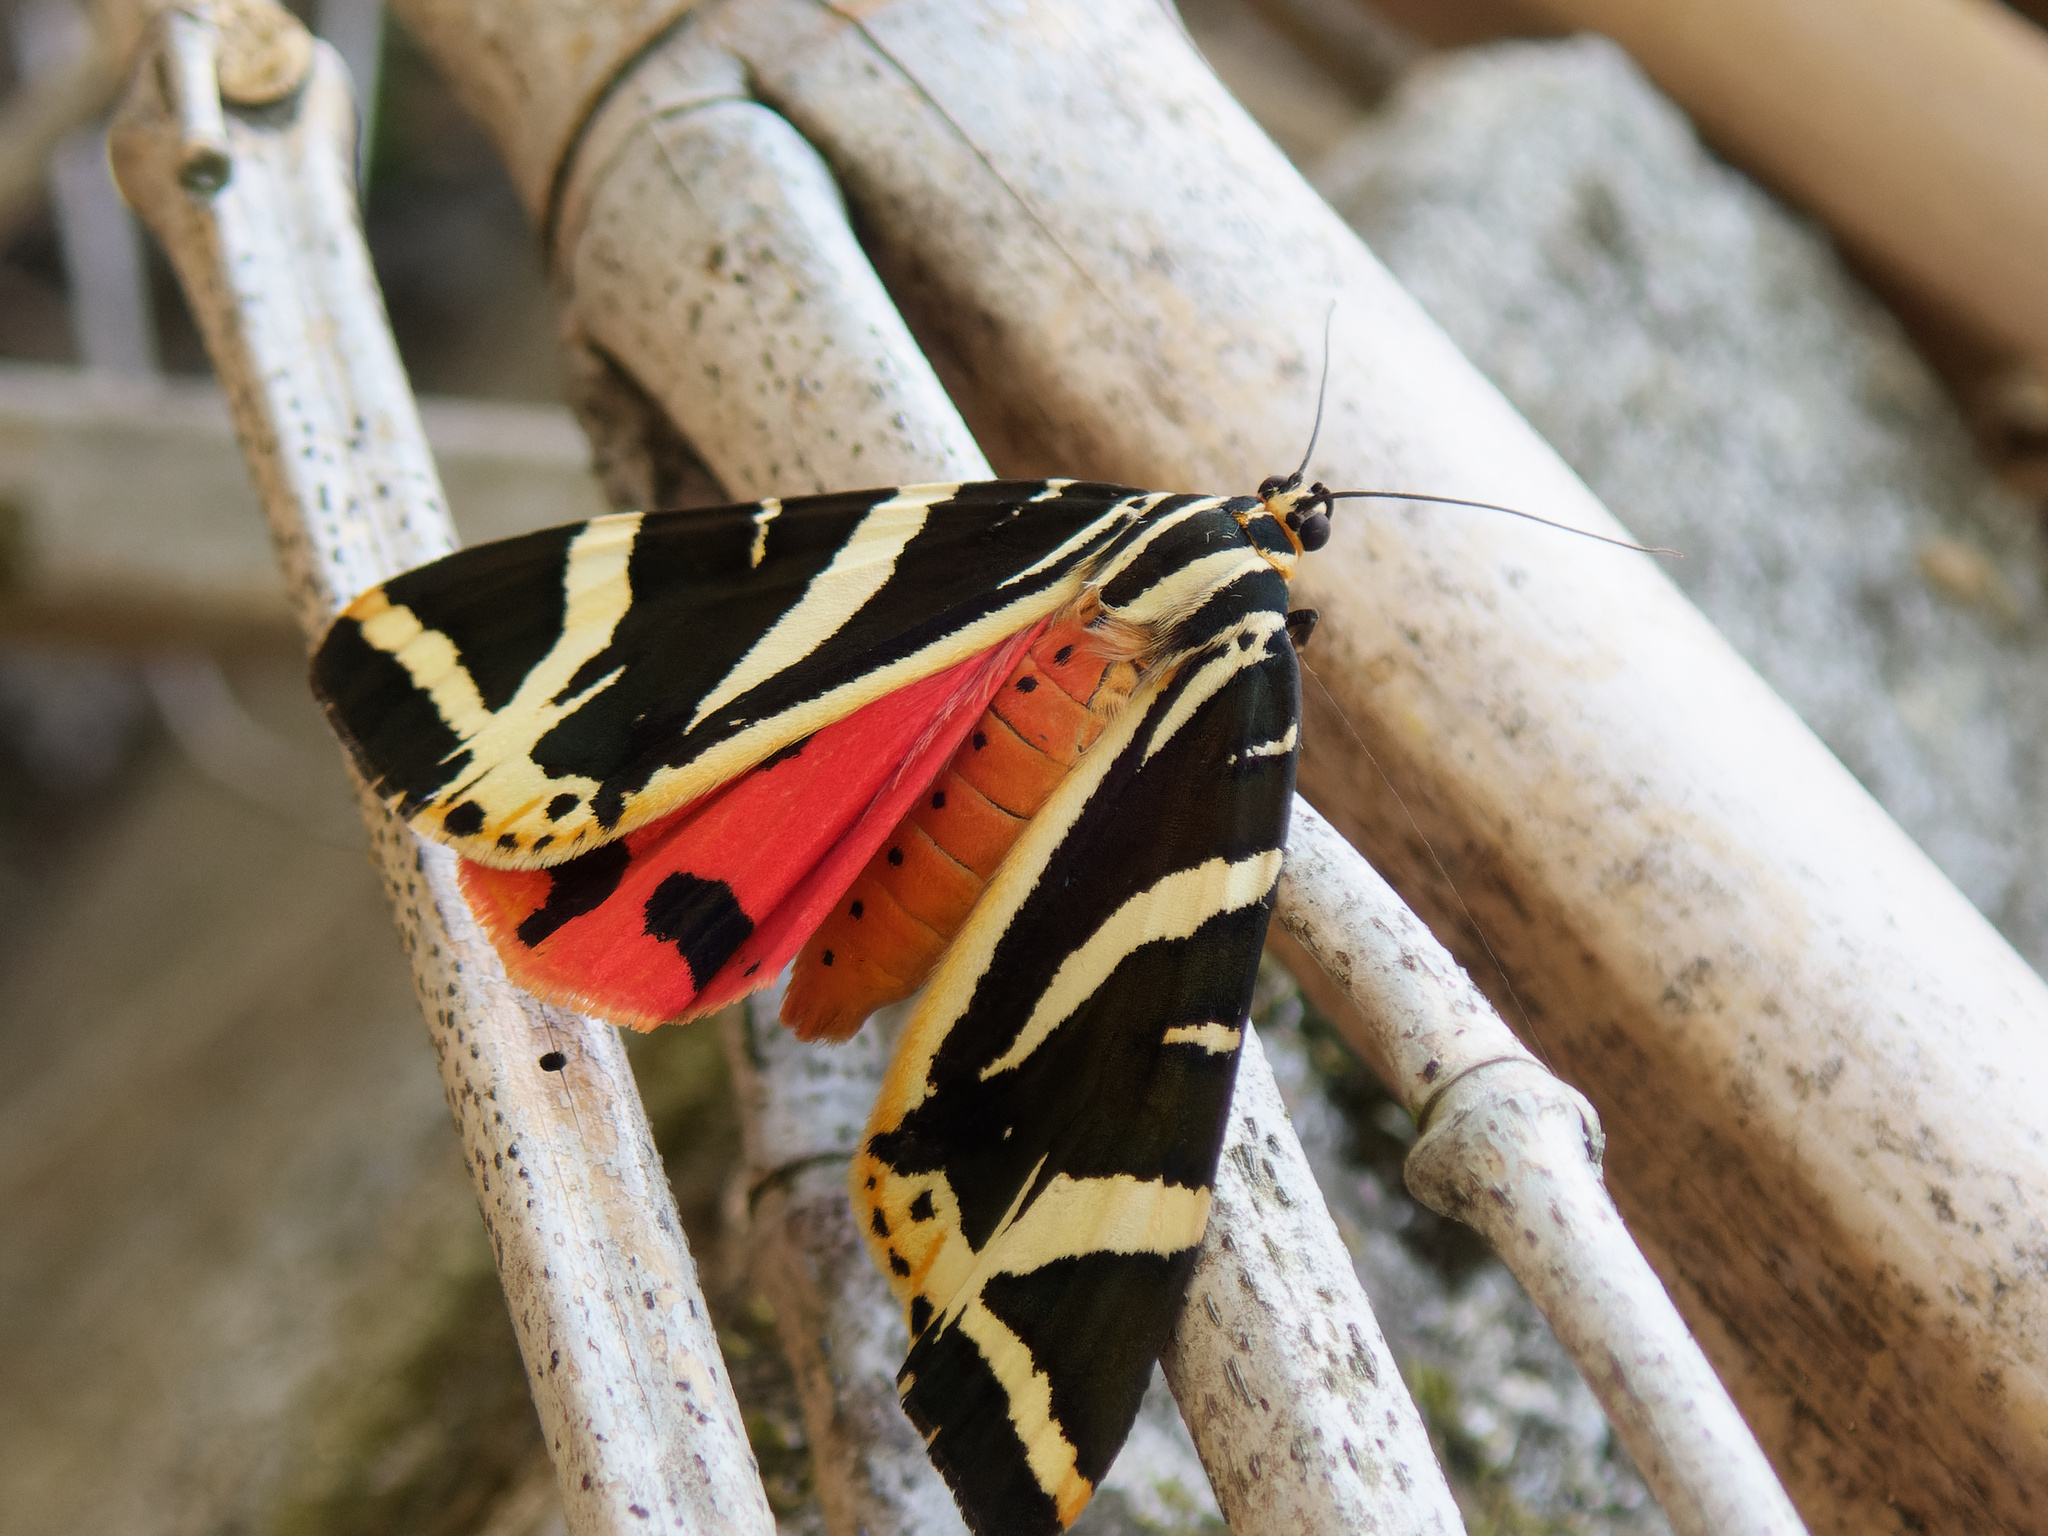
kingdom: Animalia
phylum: Arthropoda
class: Insecta
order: Lepidoptera
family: Erebidae
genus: Euplagia
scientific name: Euplagia quadripunctaria
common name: Jersey tiger
